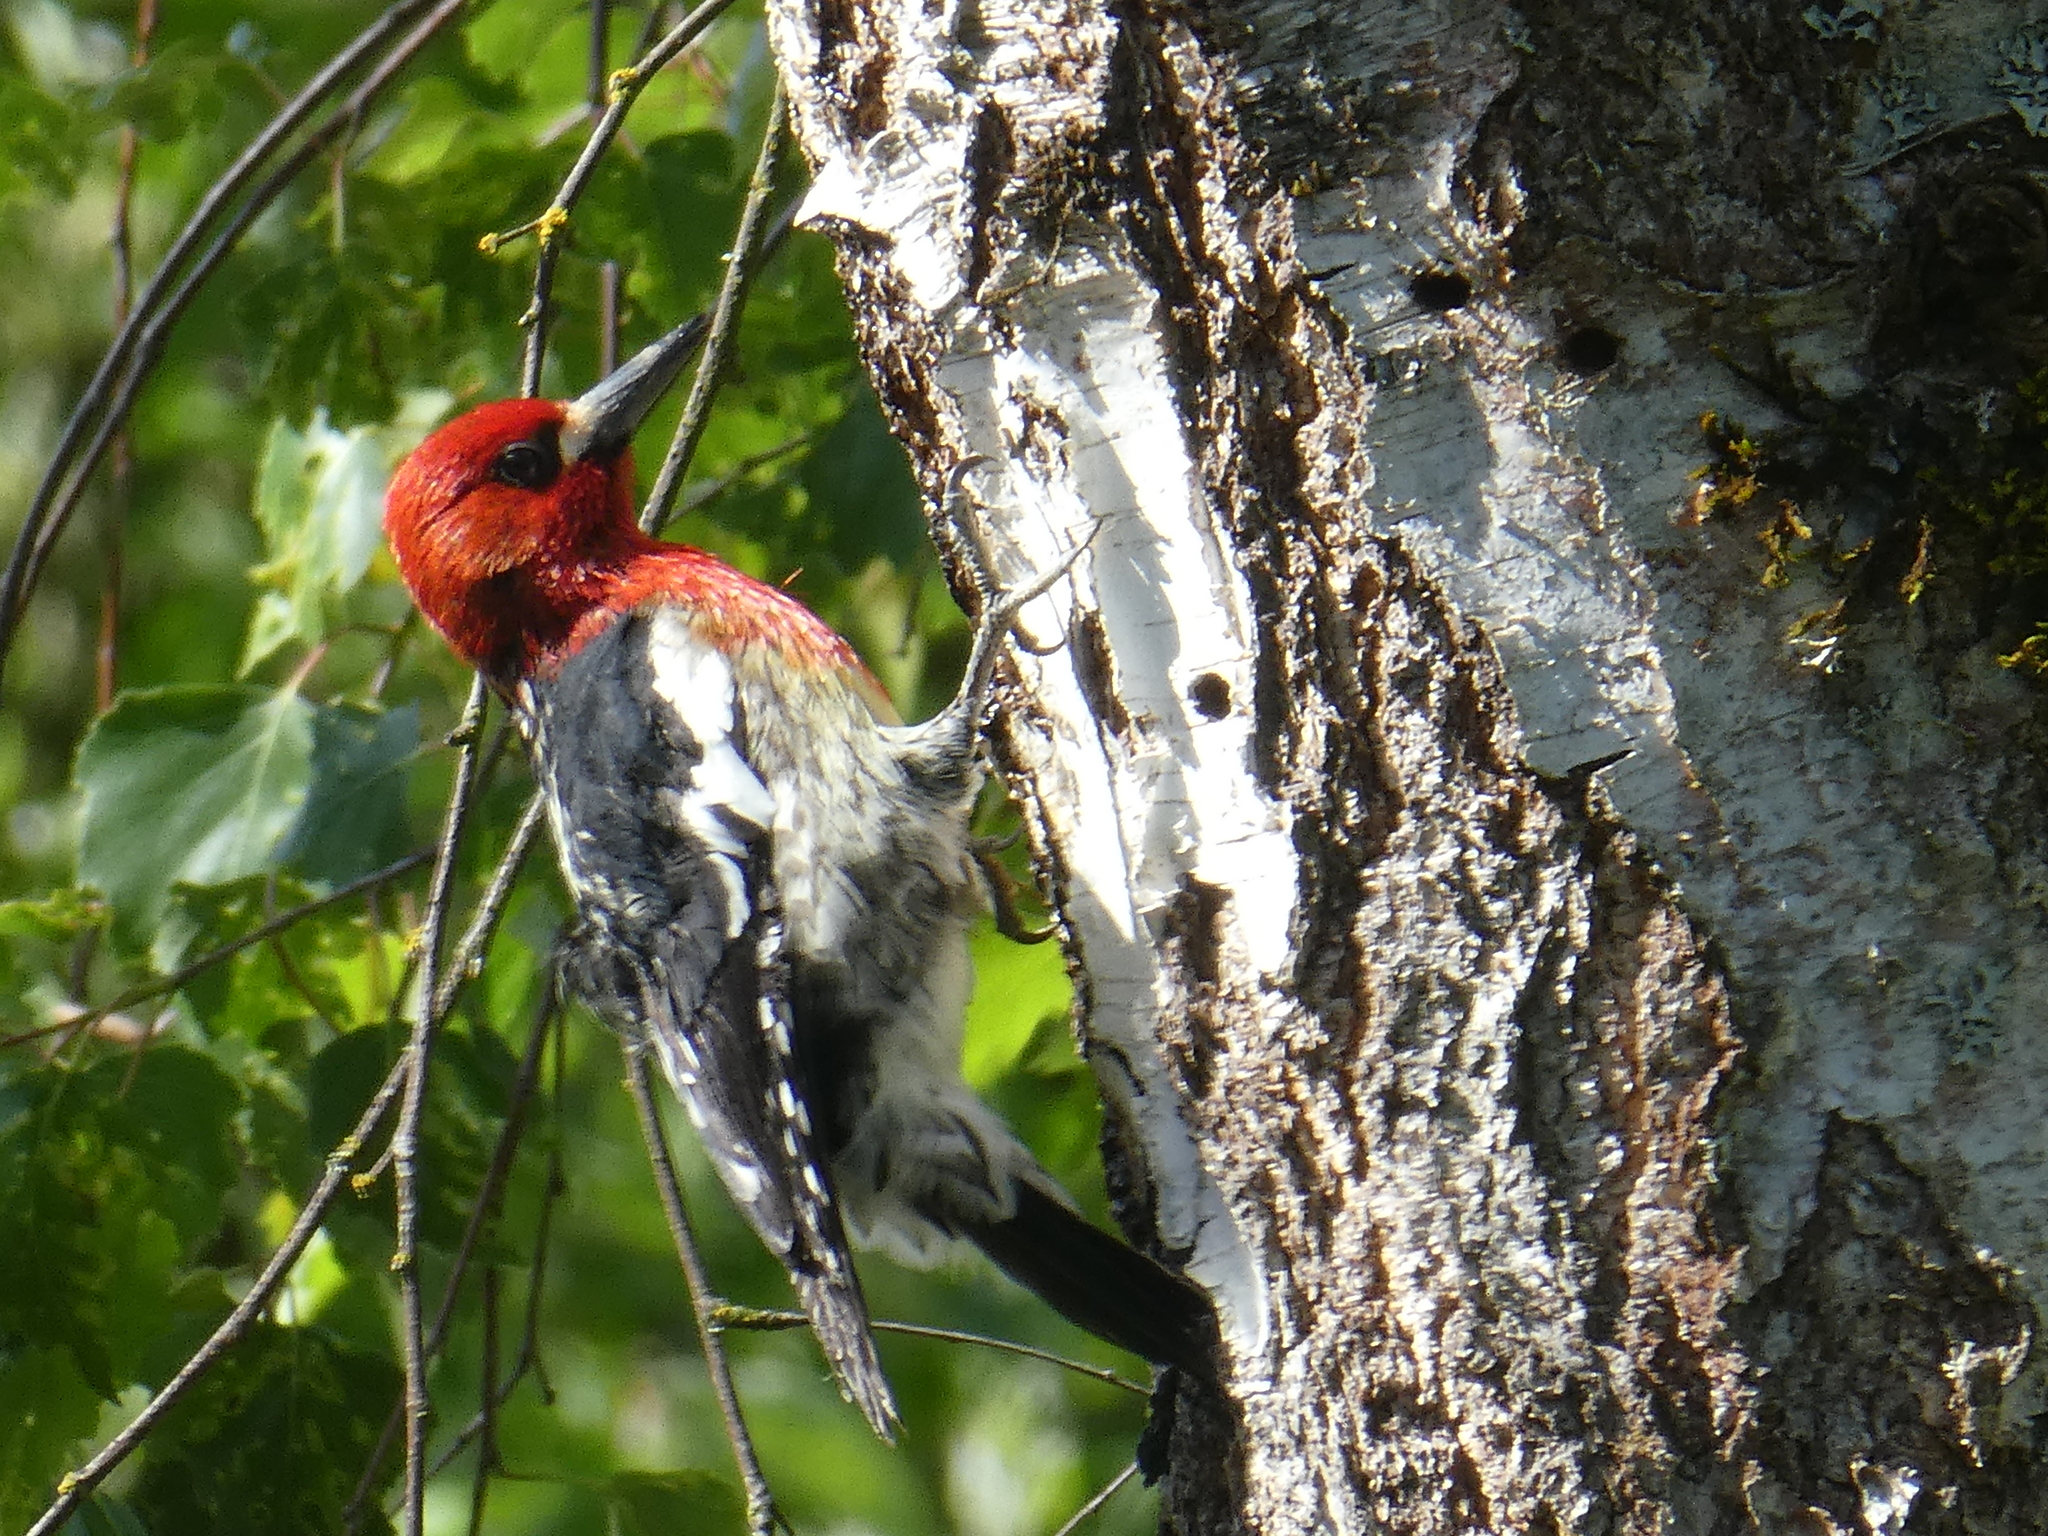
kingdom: Animalia
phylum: Chordata
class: Aves
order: Piciformes
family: Picidae
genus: Sphyrapicus
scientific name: Sphyrapicus ruber
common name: Red-breasted sapsucker
